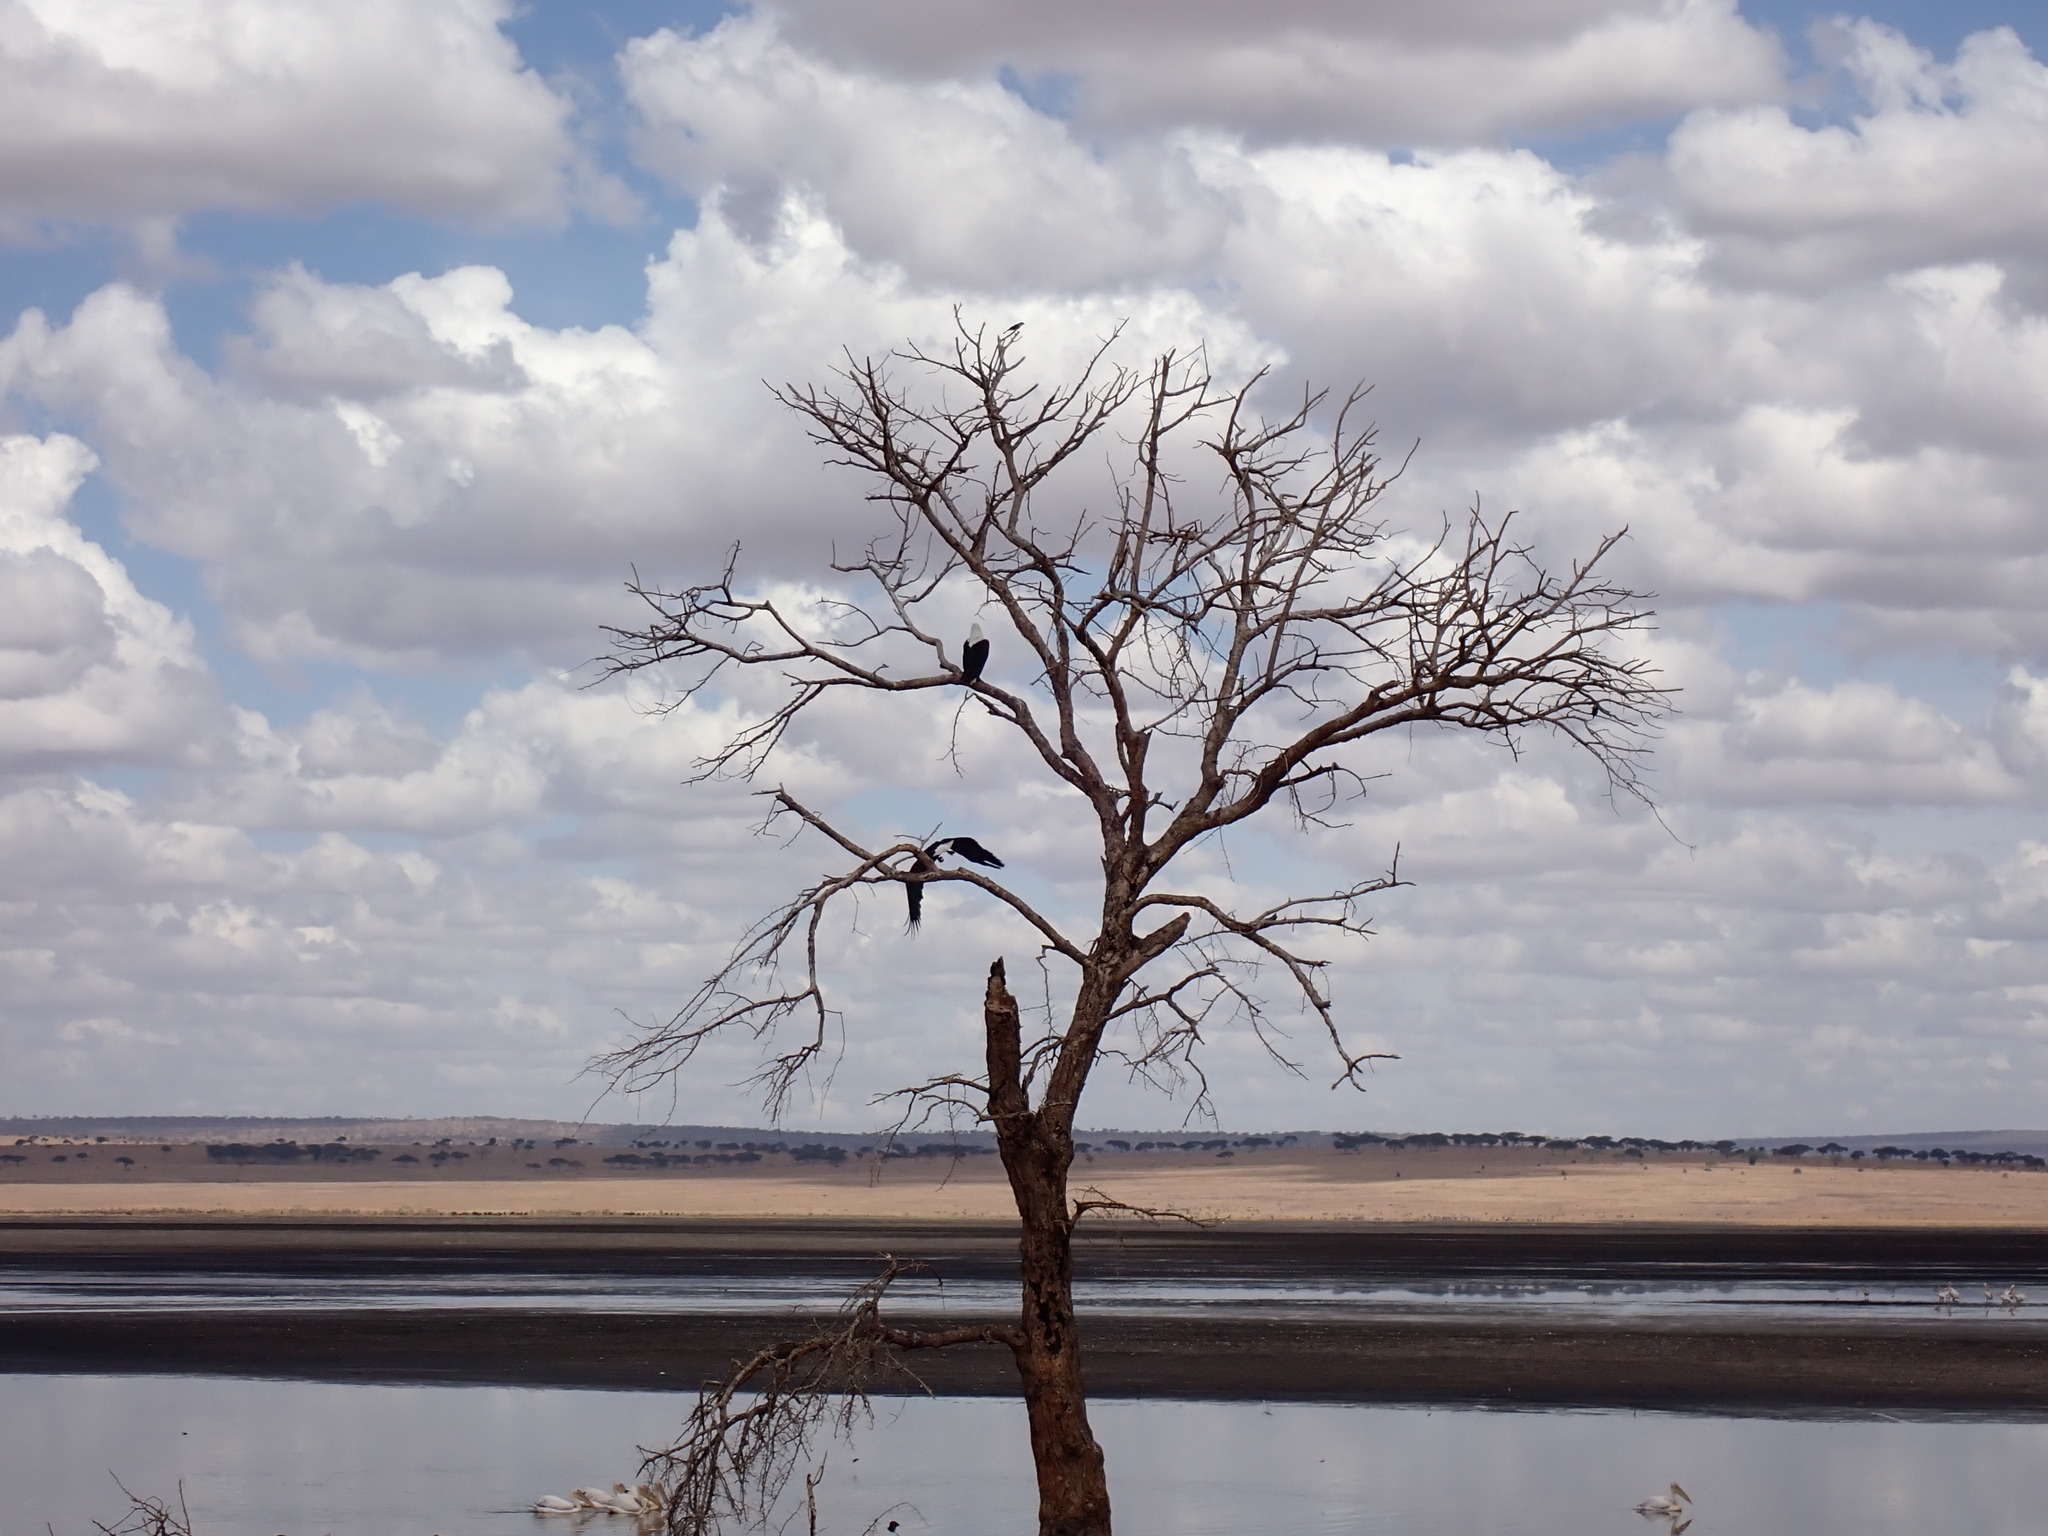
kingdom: Animalia
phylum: Chordata
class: Aves
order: Accipitriformes
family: Accipitridae
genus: Haliaeetus
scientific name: Haliaeetus vocifer
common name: African fish eagle
